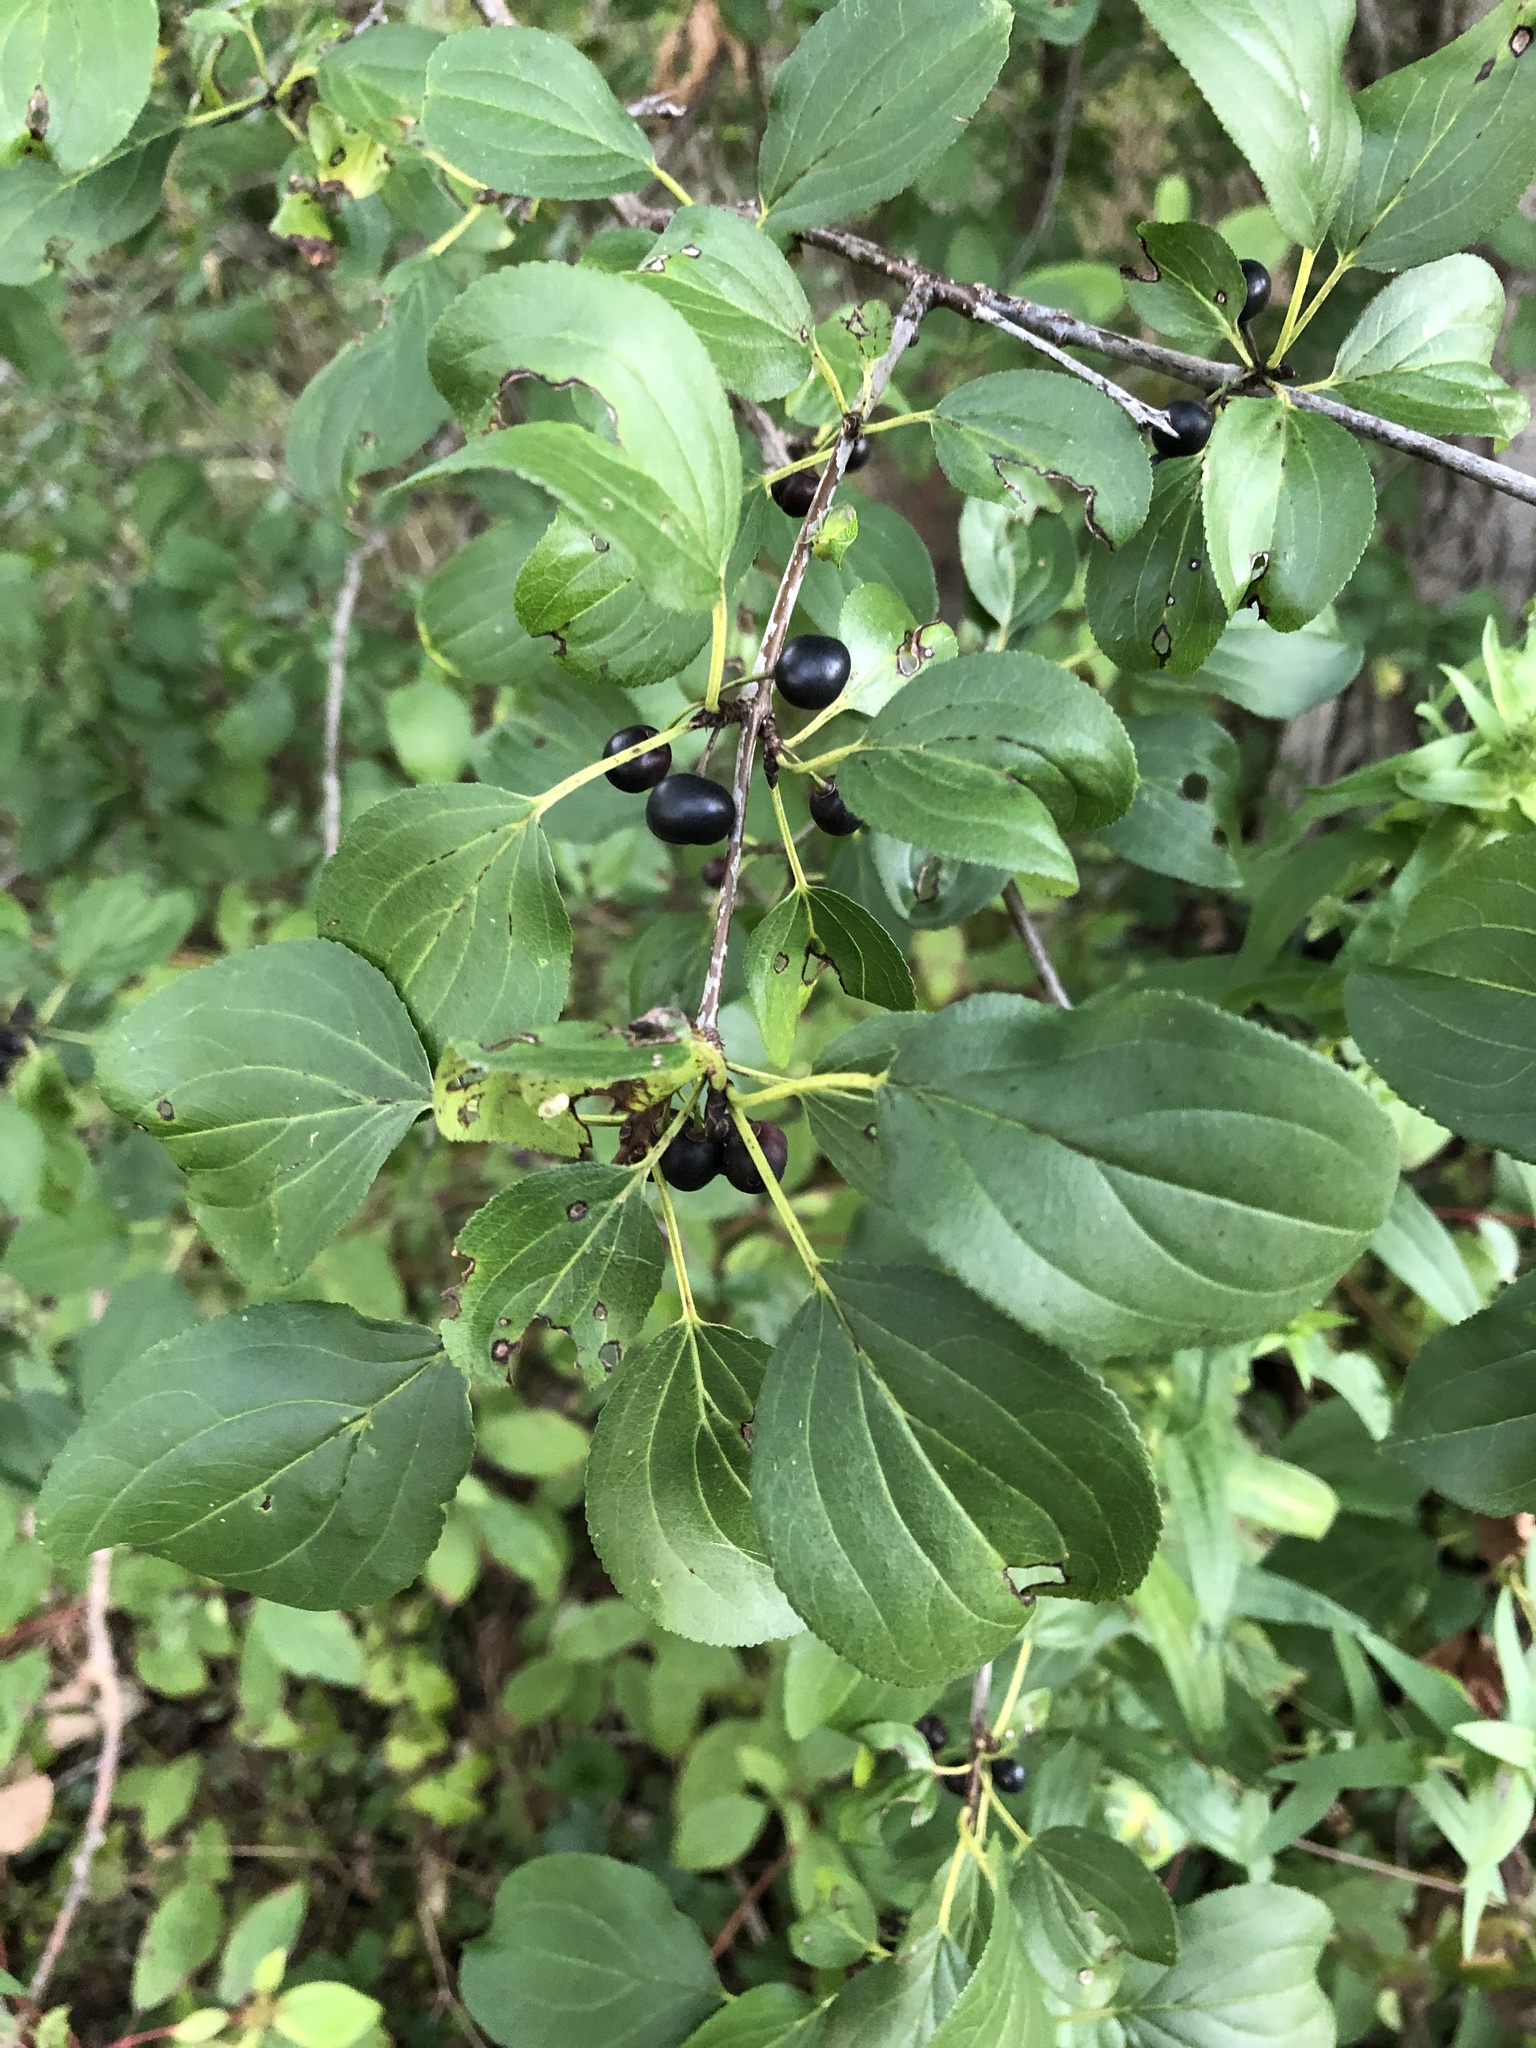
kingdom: Plantae
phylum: Tracheophyta
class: Magnoliopsida
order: Rosales
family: Rhamnaceae
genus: Rhamnus
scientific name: Rhamnus cathartica
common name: Common buckthorn
